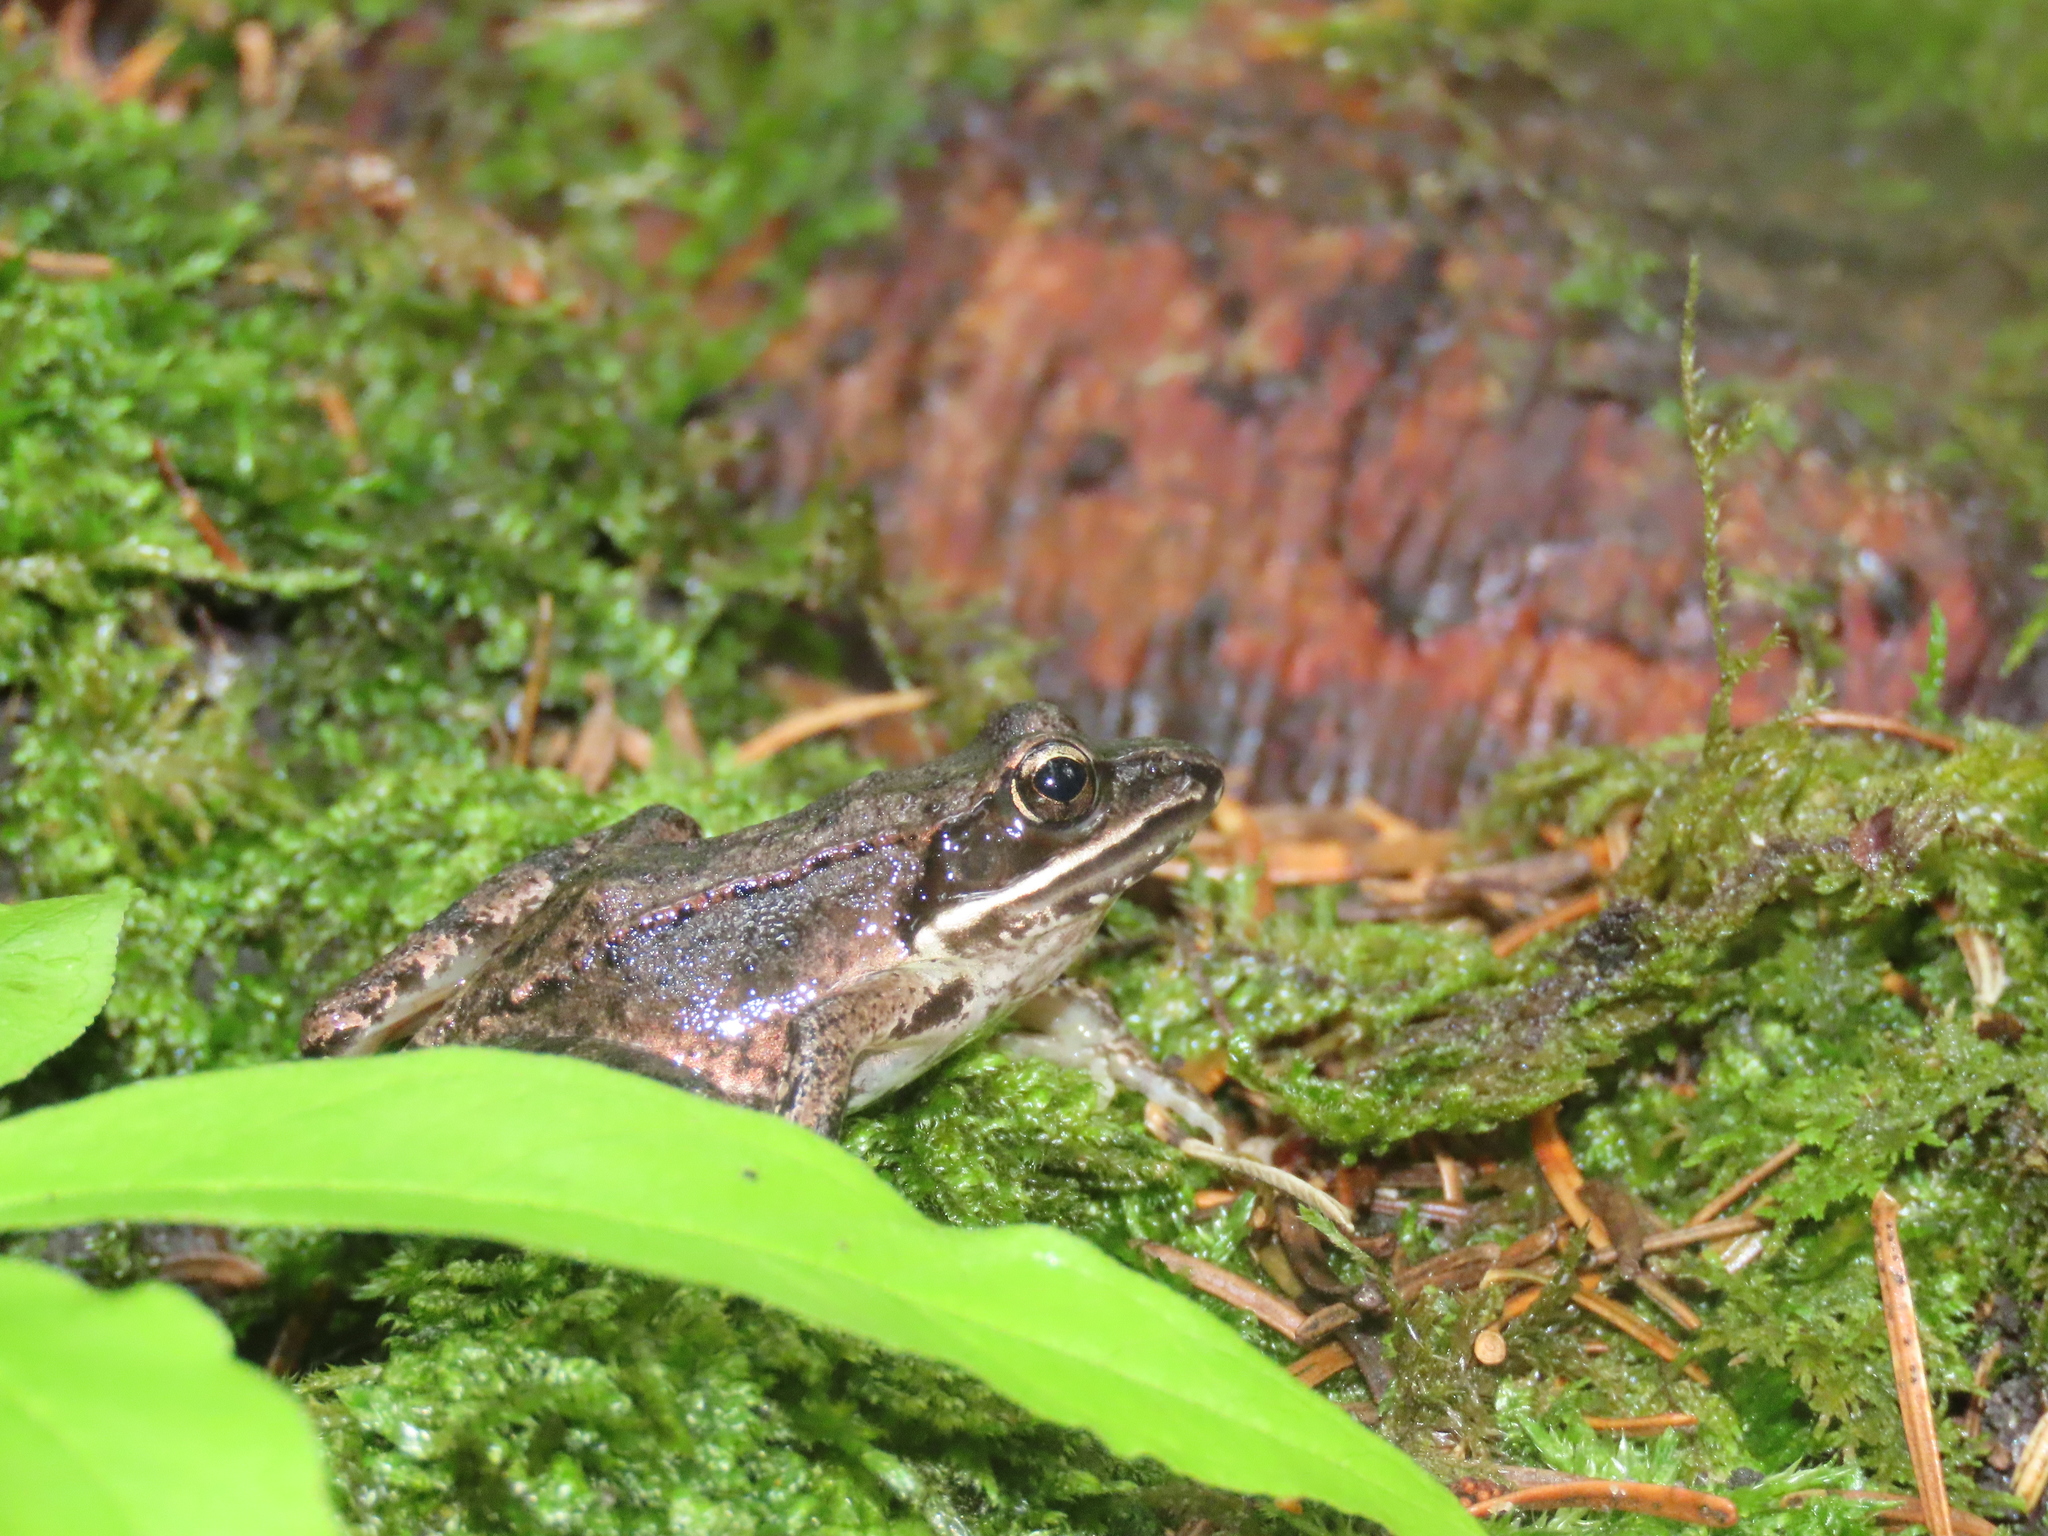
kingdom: Animalia
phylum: Chordata
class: Amphibia
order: Anura
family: Ranidae
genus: Lithobates
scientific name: Lithobates sylvaticus
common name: Wood frog
